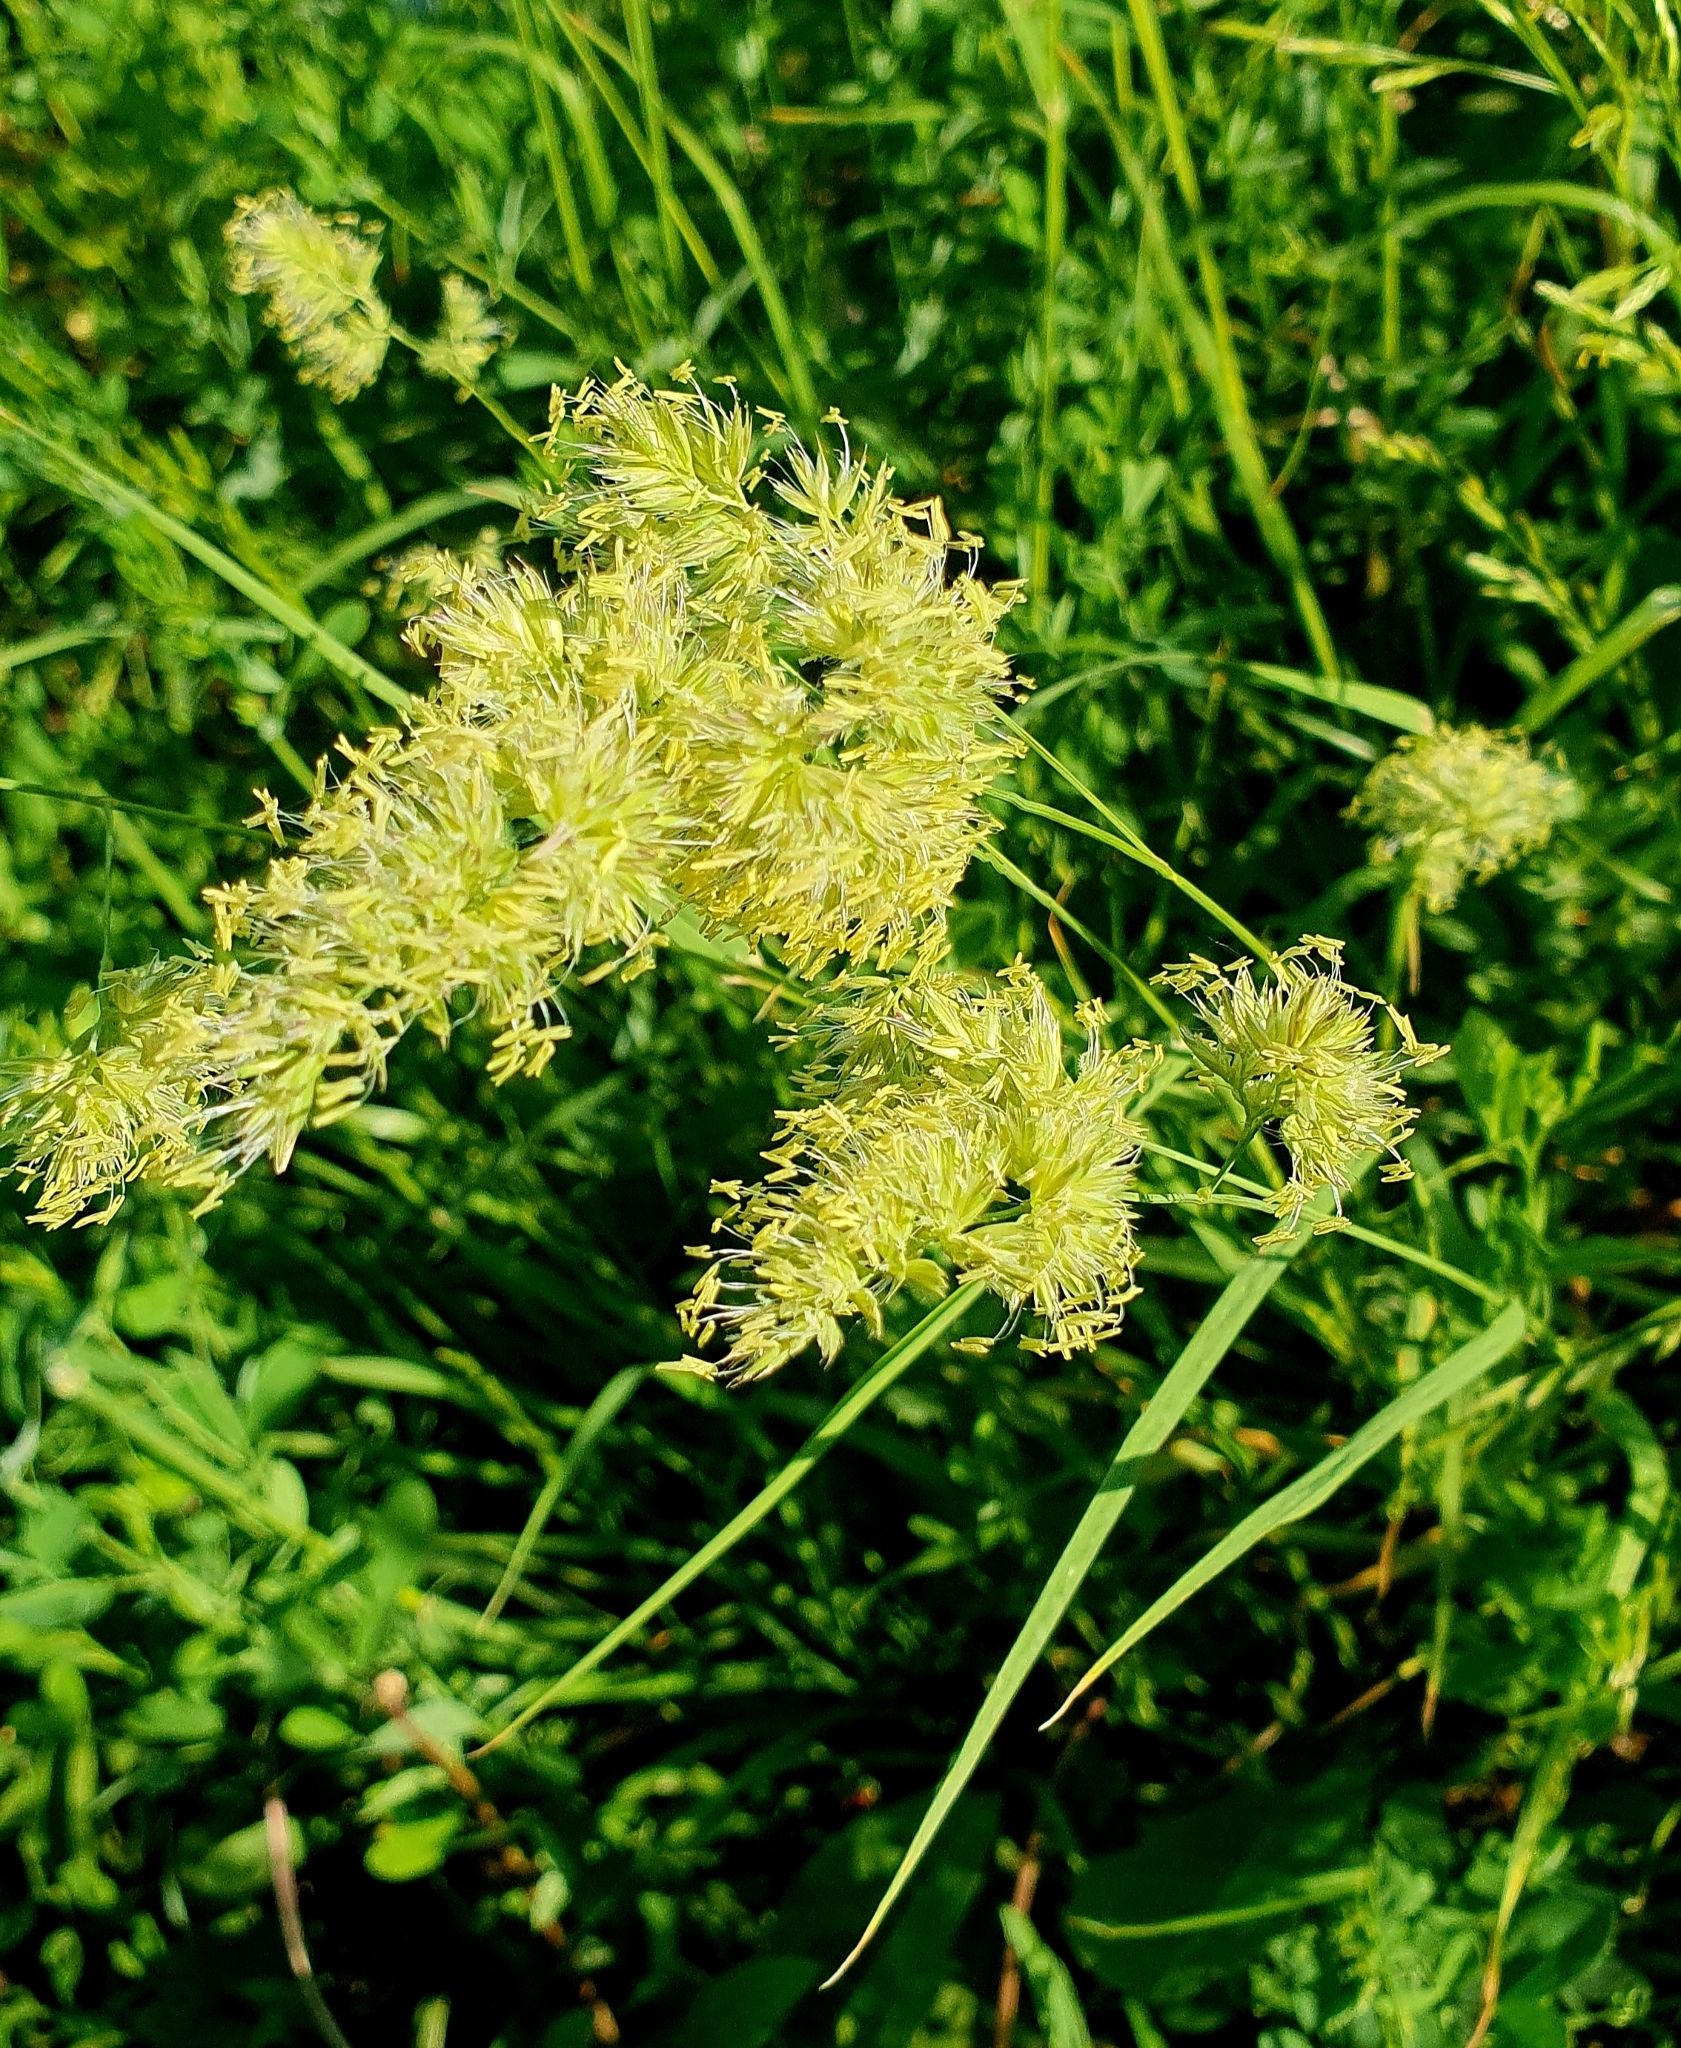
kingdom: Plantae
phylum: Tracheophyta
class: Liliopsida
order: Poales
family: Poaceae
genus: Dactylis
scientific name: Dactylis glomerata
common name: Orchardgrass
